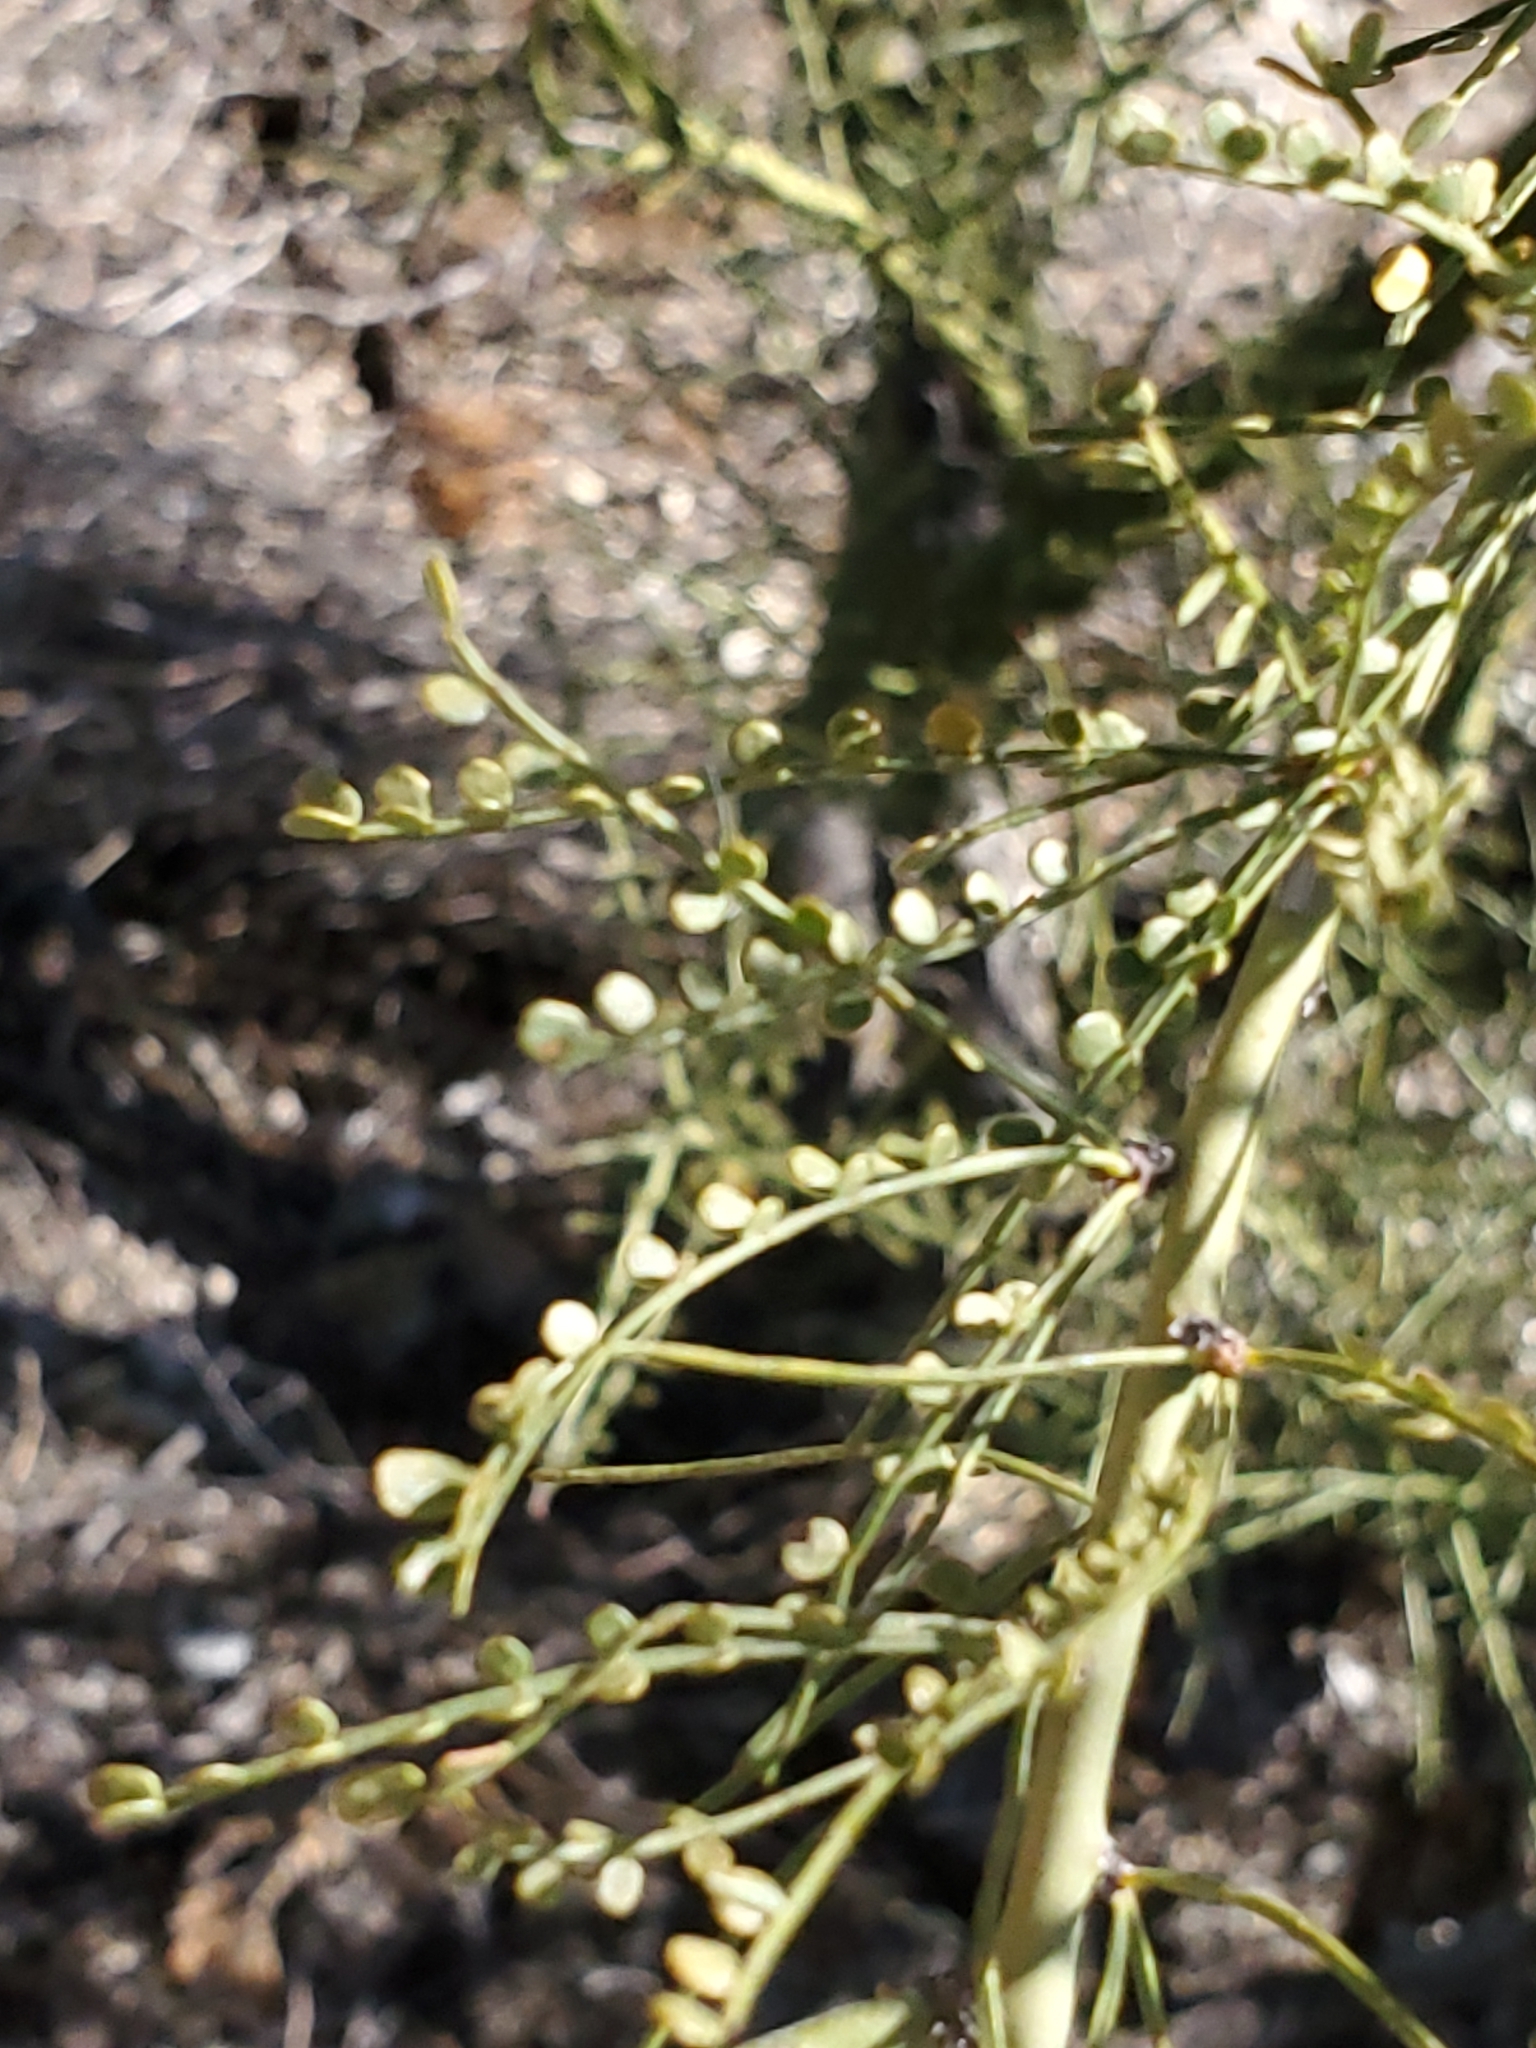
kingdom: Plantae
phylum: Tracheophyta
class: Magnoliopsida
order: Fabales
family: Fabaceae
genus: Parkinsonia
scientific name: Parkinsonia microphylla
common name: Yellow paloverde
